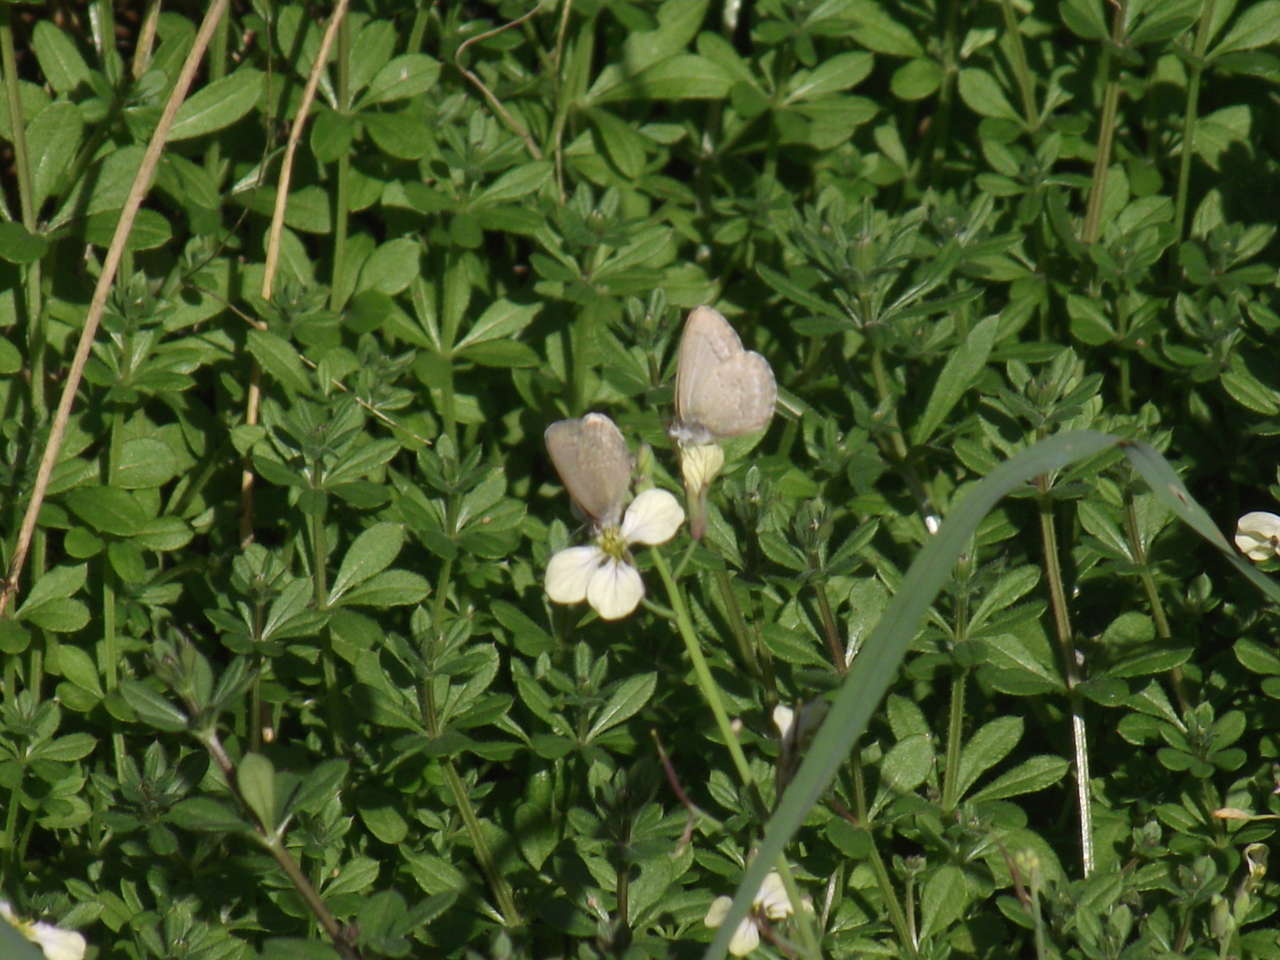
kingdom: Animalia
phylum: Arthropoda
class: Insecta
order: Lepidoptera
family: Lycaenidae
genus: Zizina
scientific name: Zizina labradus
